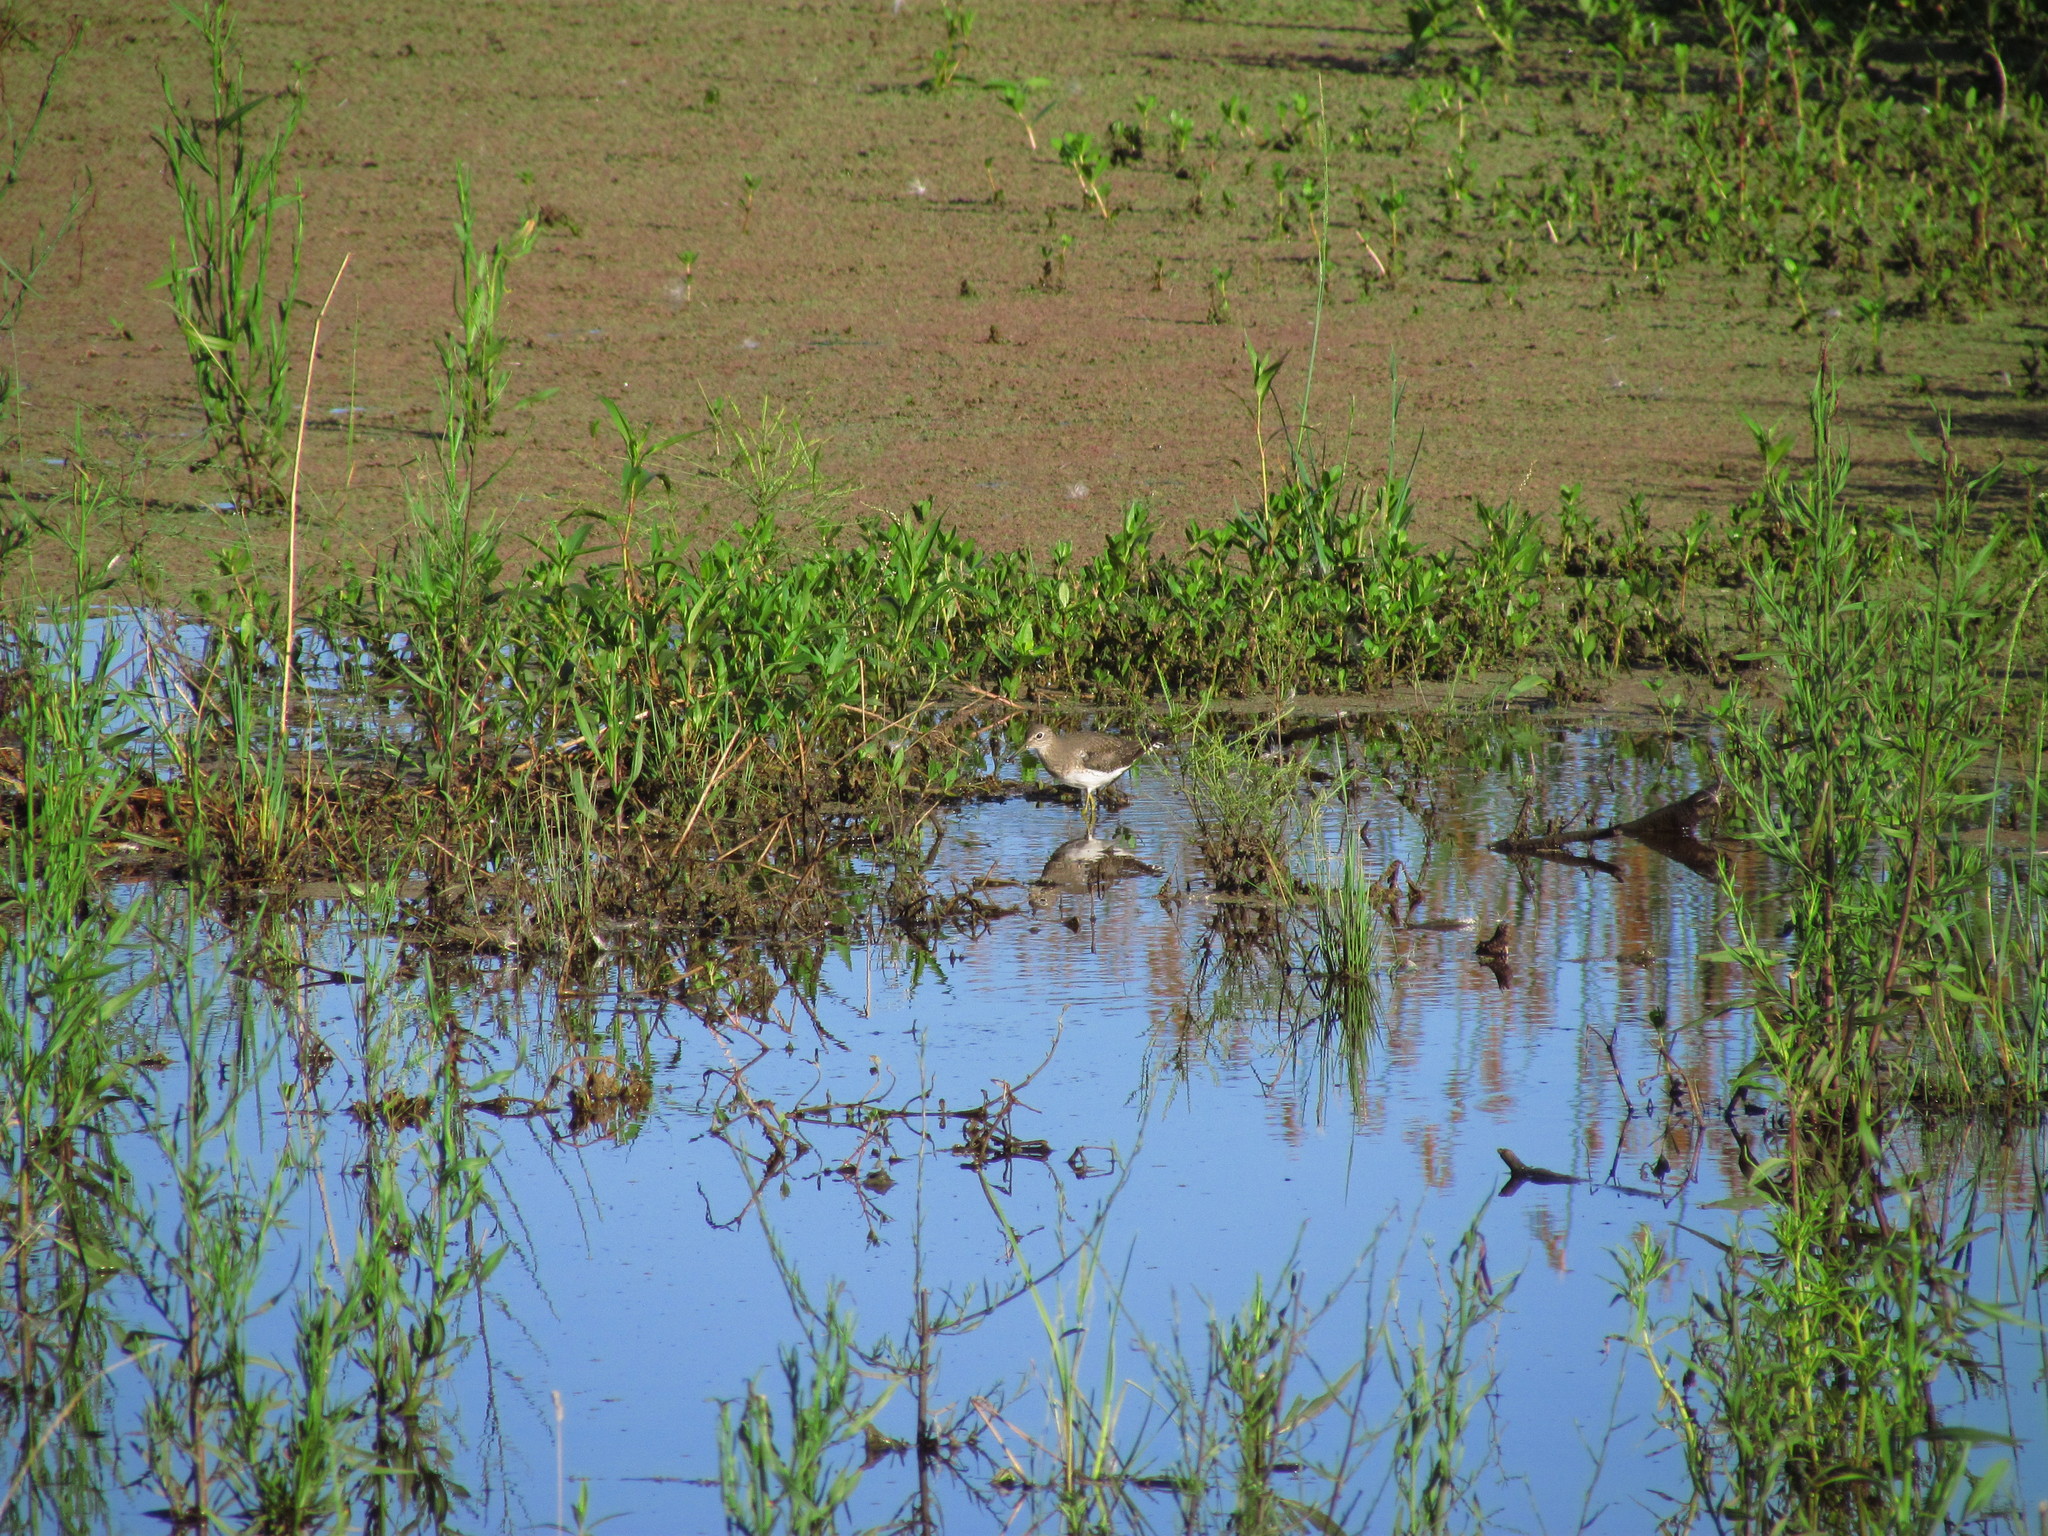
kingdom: Animalia
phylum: Chordata
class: Aves
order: Charadriiformes
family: Scolopacidae
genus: Tringa
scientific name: Tringa solitaria
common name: Solitary sandpiper
